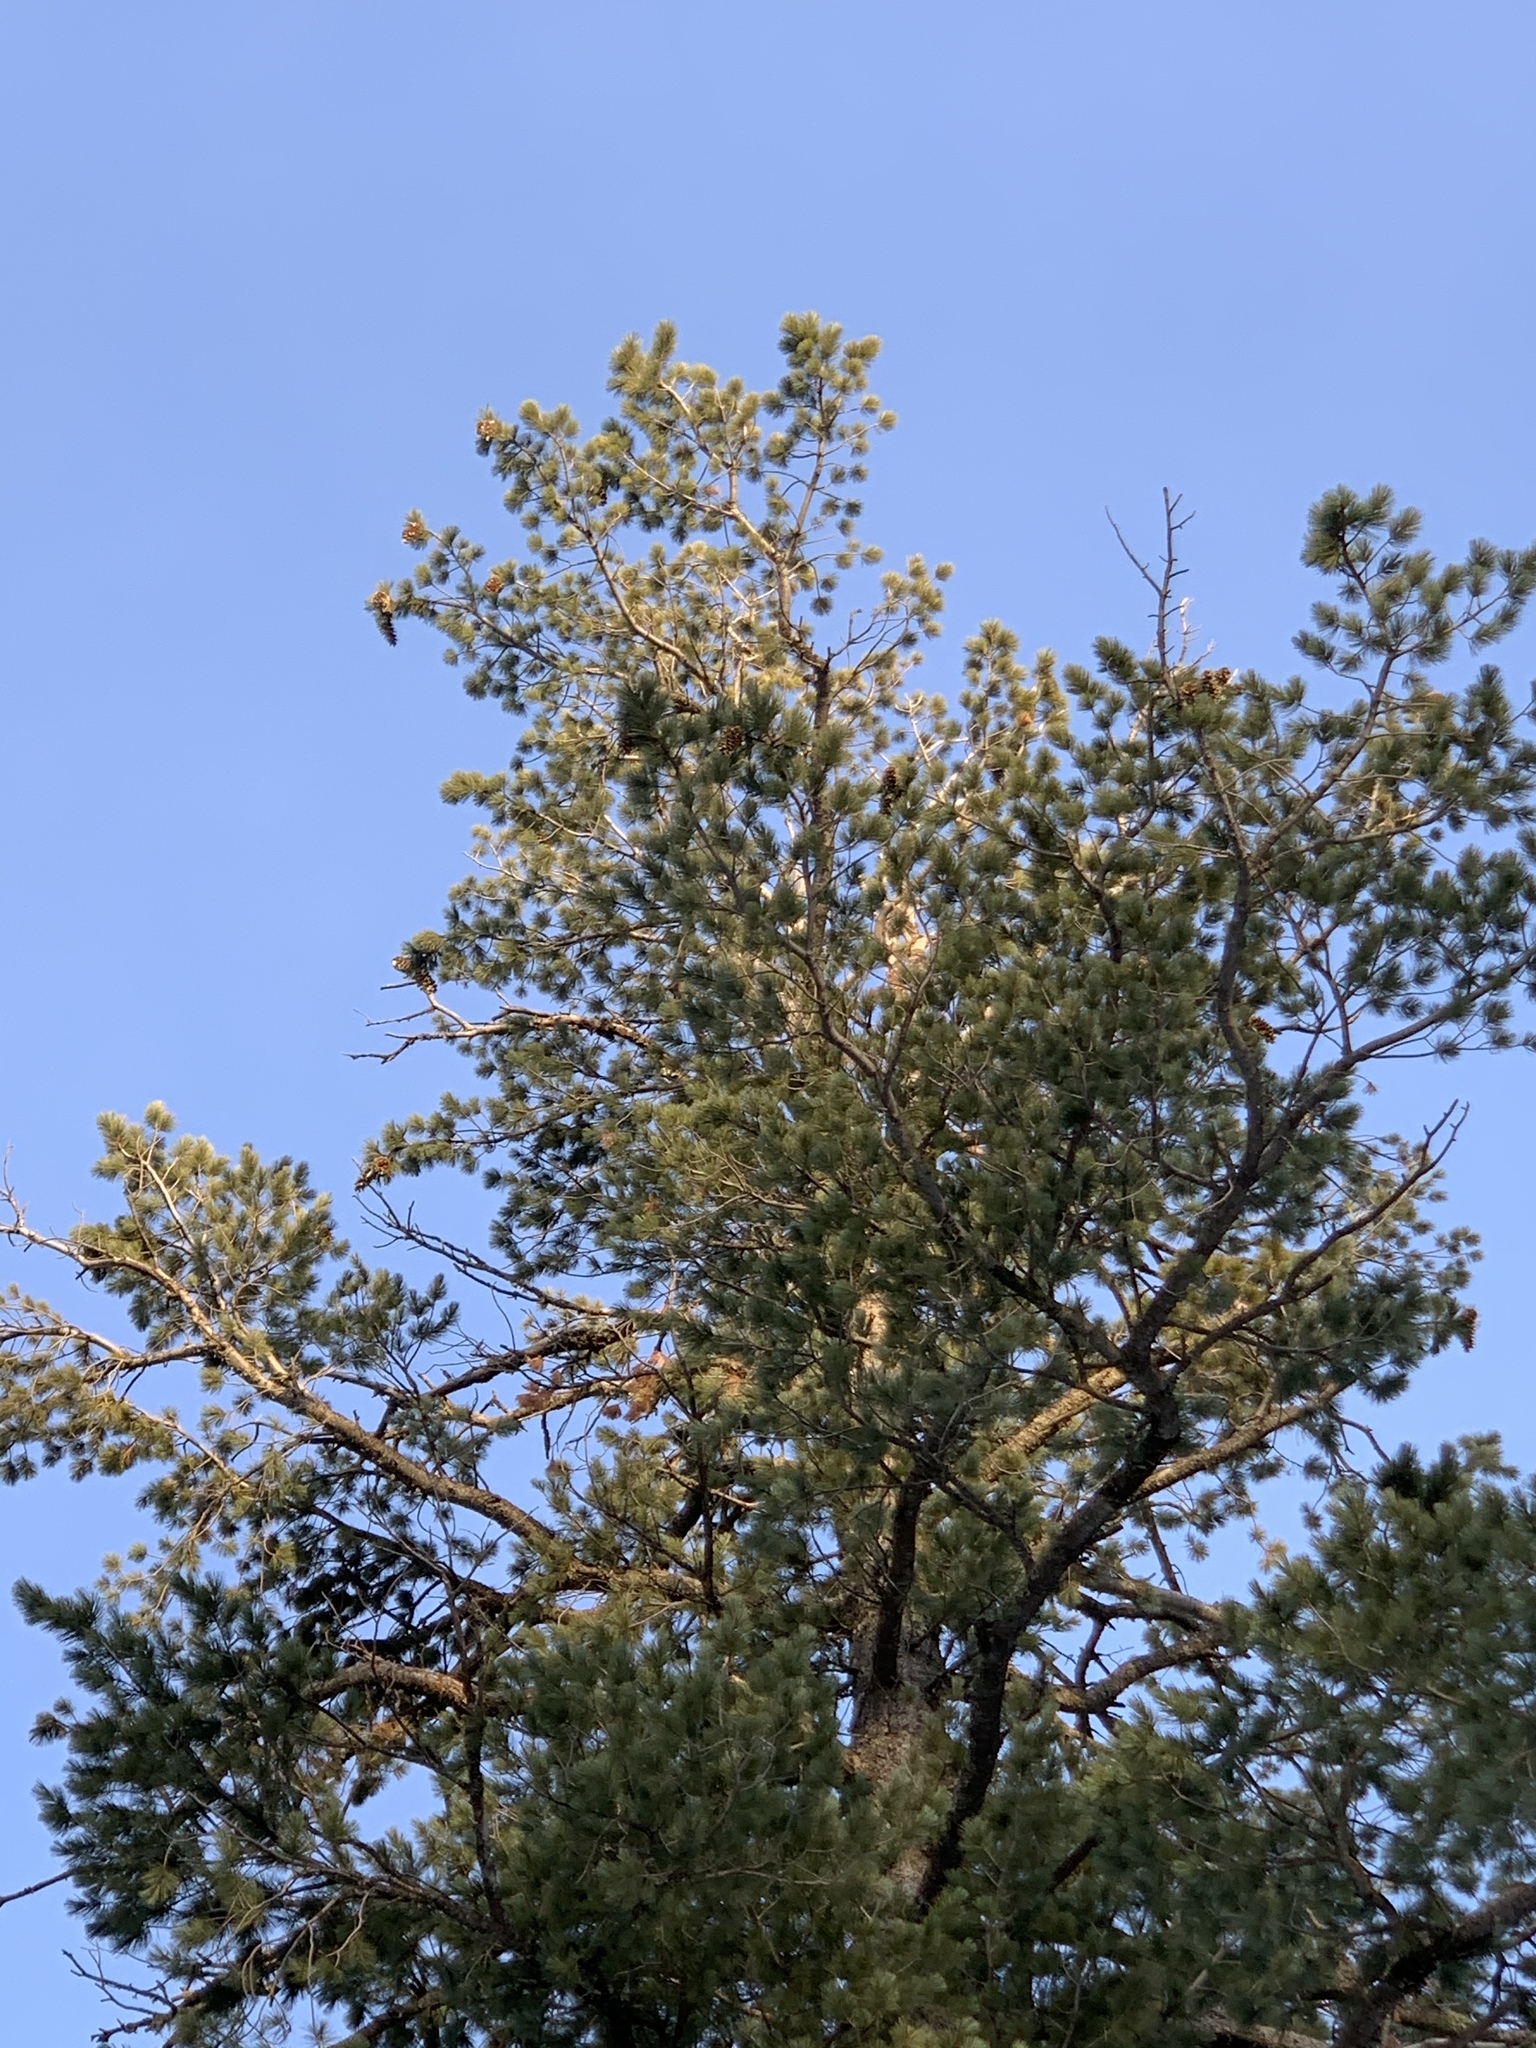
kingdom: Plantae
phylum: Tracheophyta
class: Pinopsida
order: Pinales
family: Pinaceae
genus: Pinus
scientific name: Pinus strobiformis
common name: Southwestern white pine
